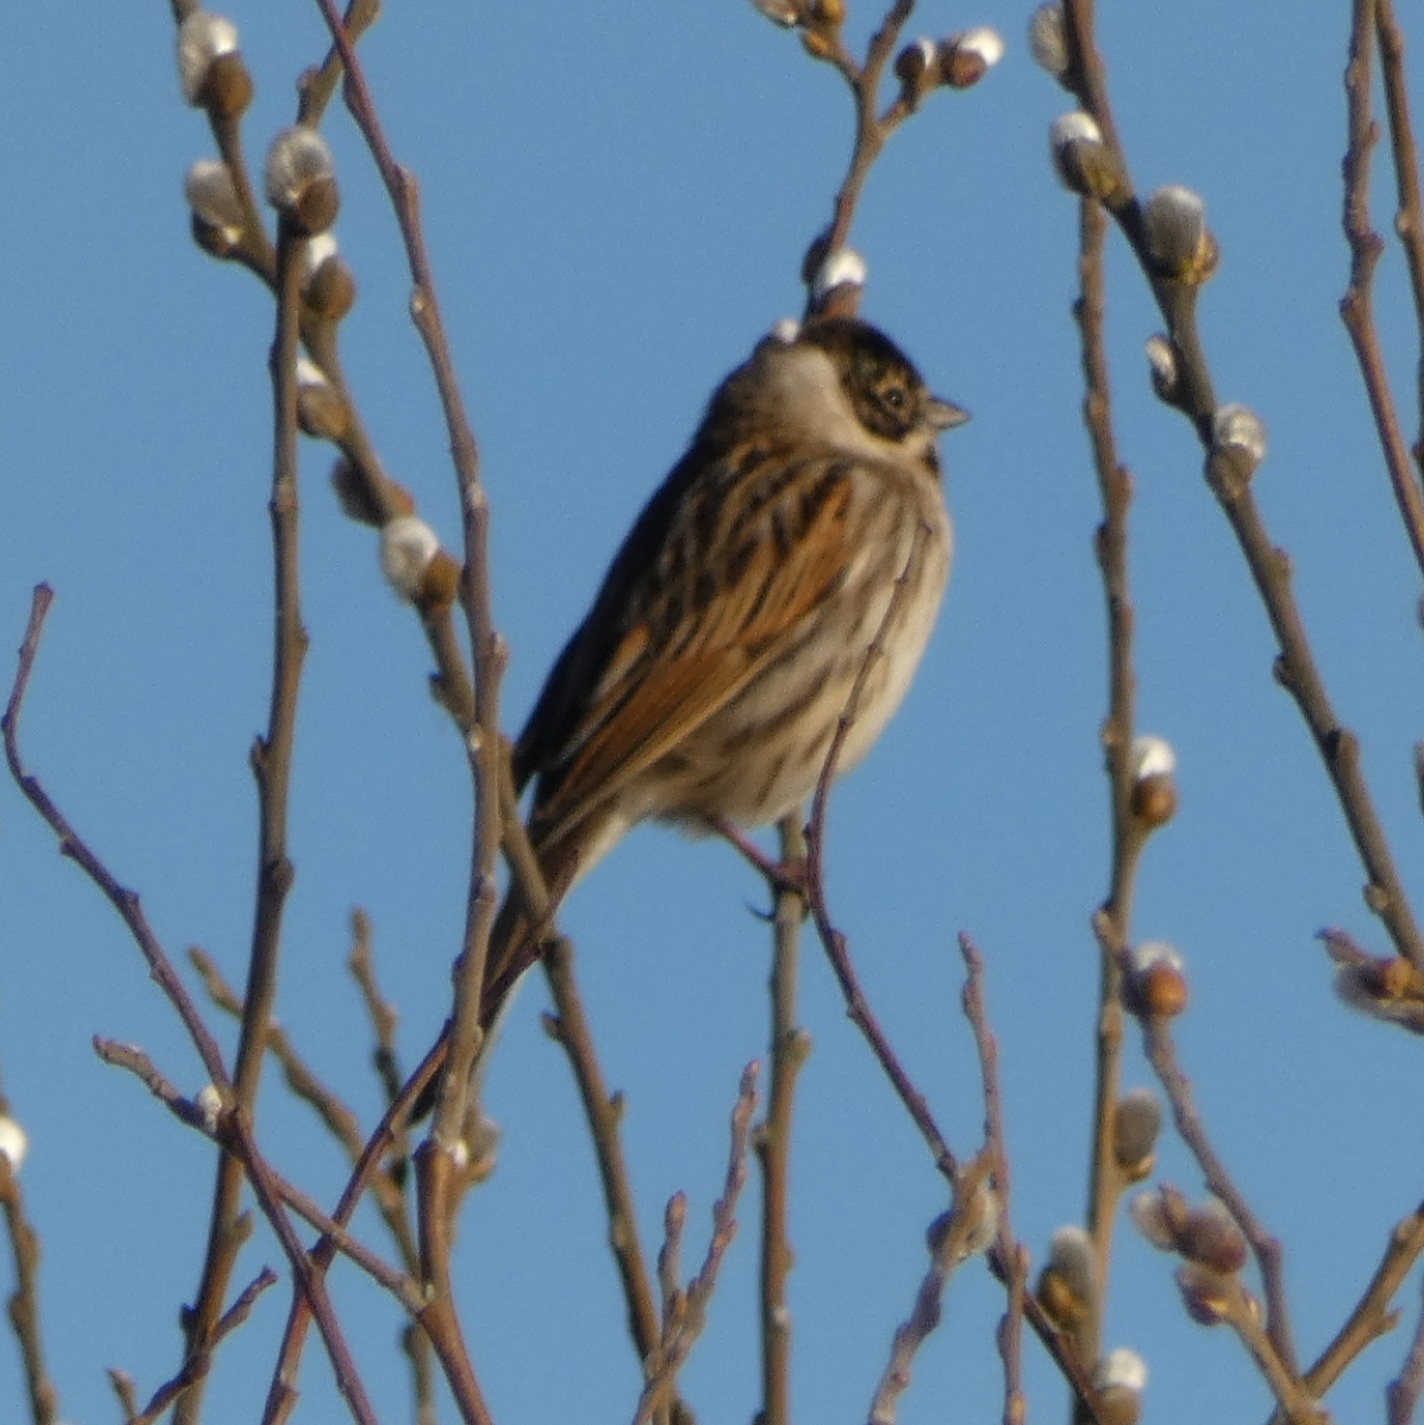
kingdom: Animalia
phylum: Chordata
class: Aves
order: Passeriformes
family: Emberizidae
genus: Emberiza
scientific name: Emberiza schoeniclus
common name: Reed bunting
